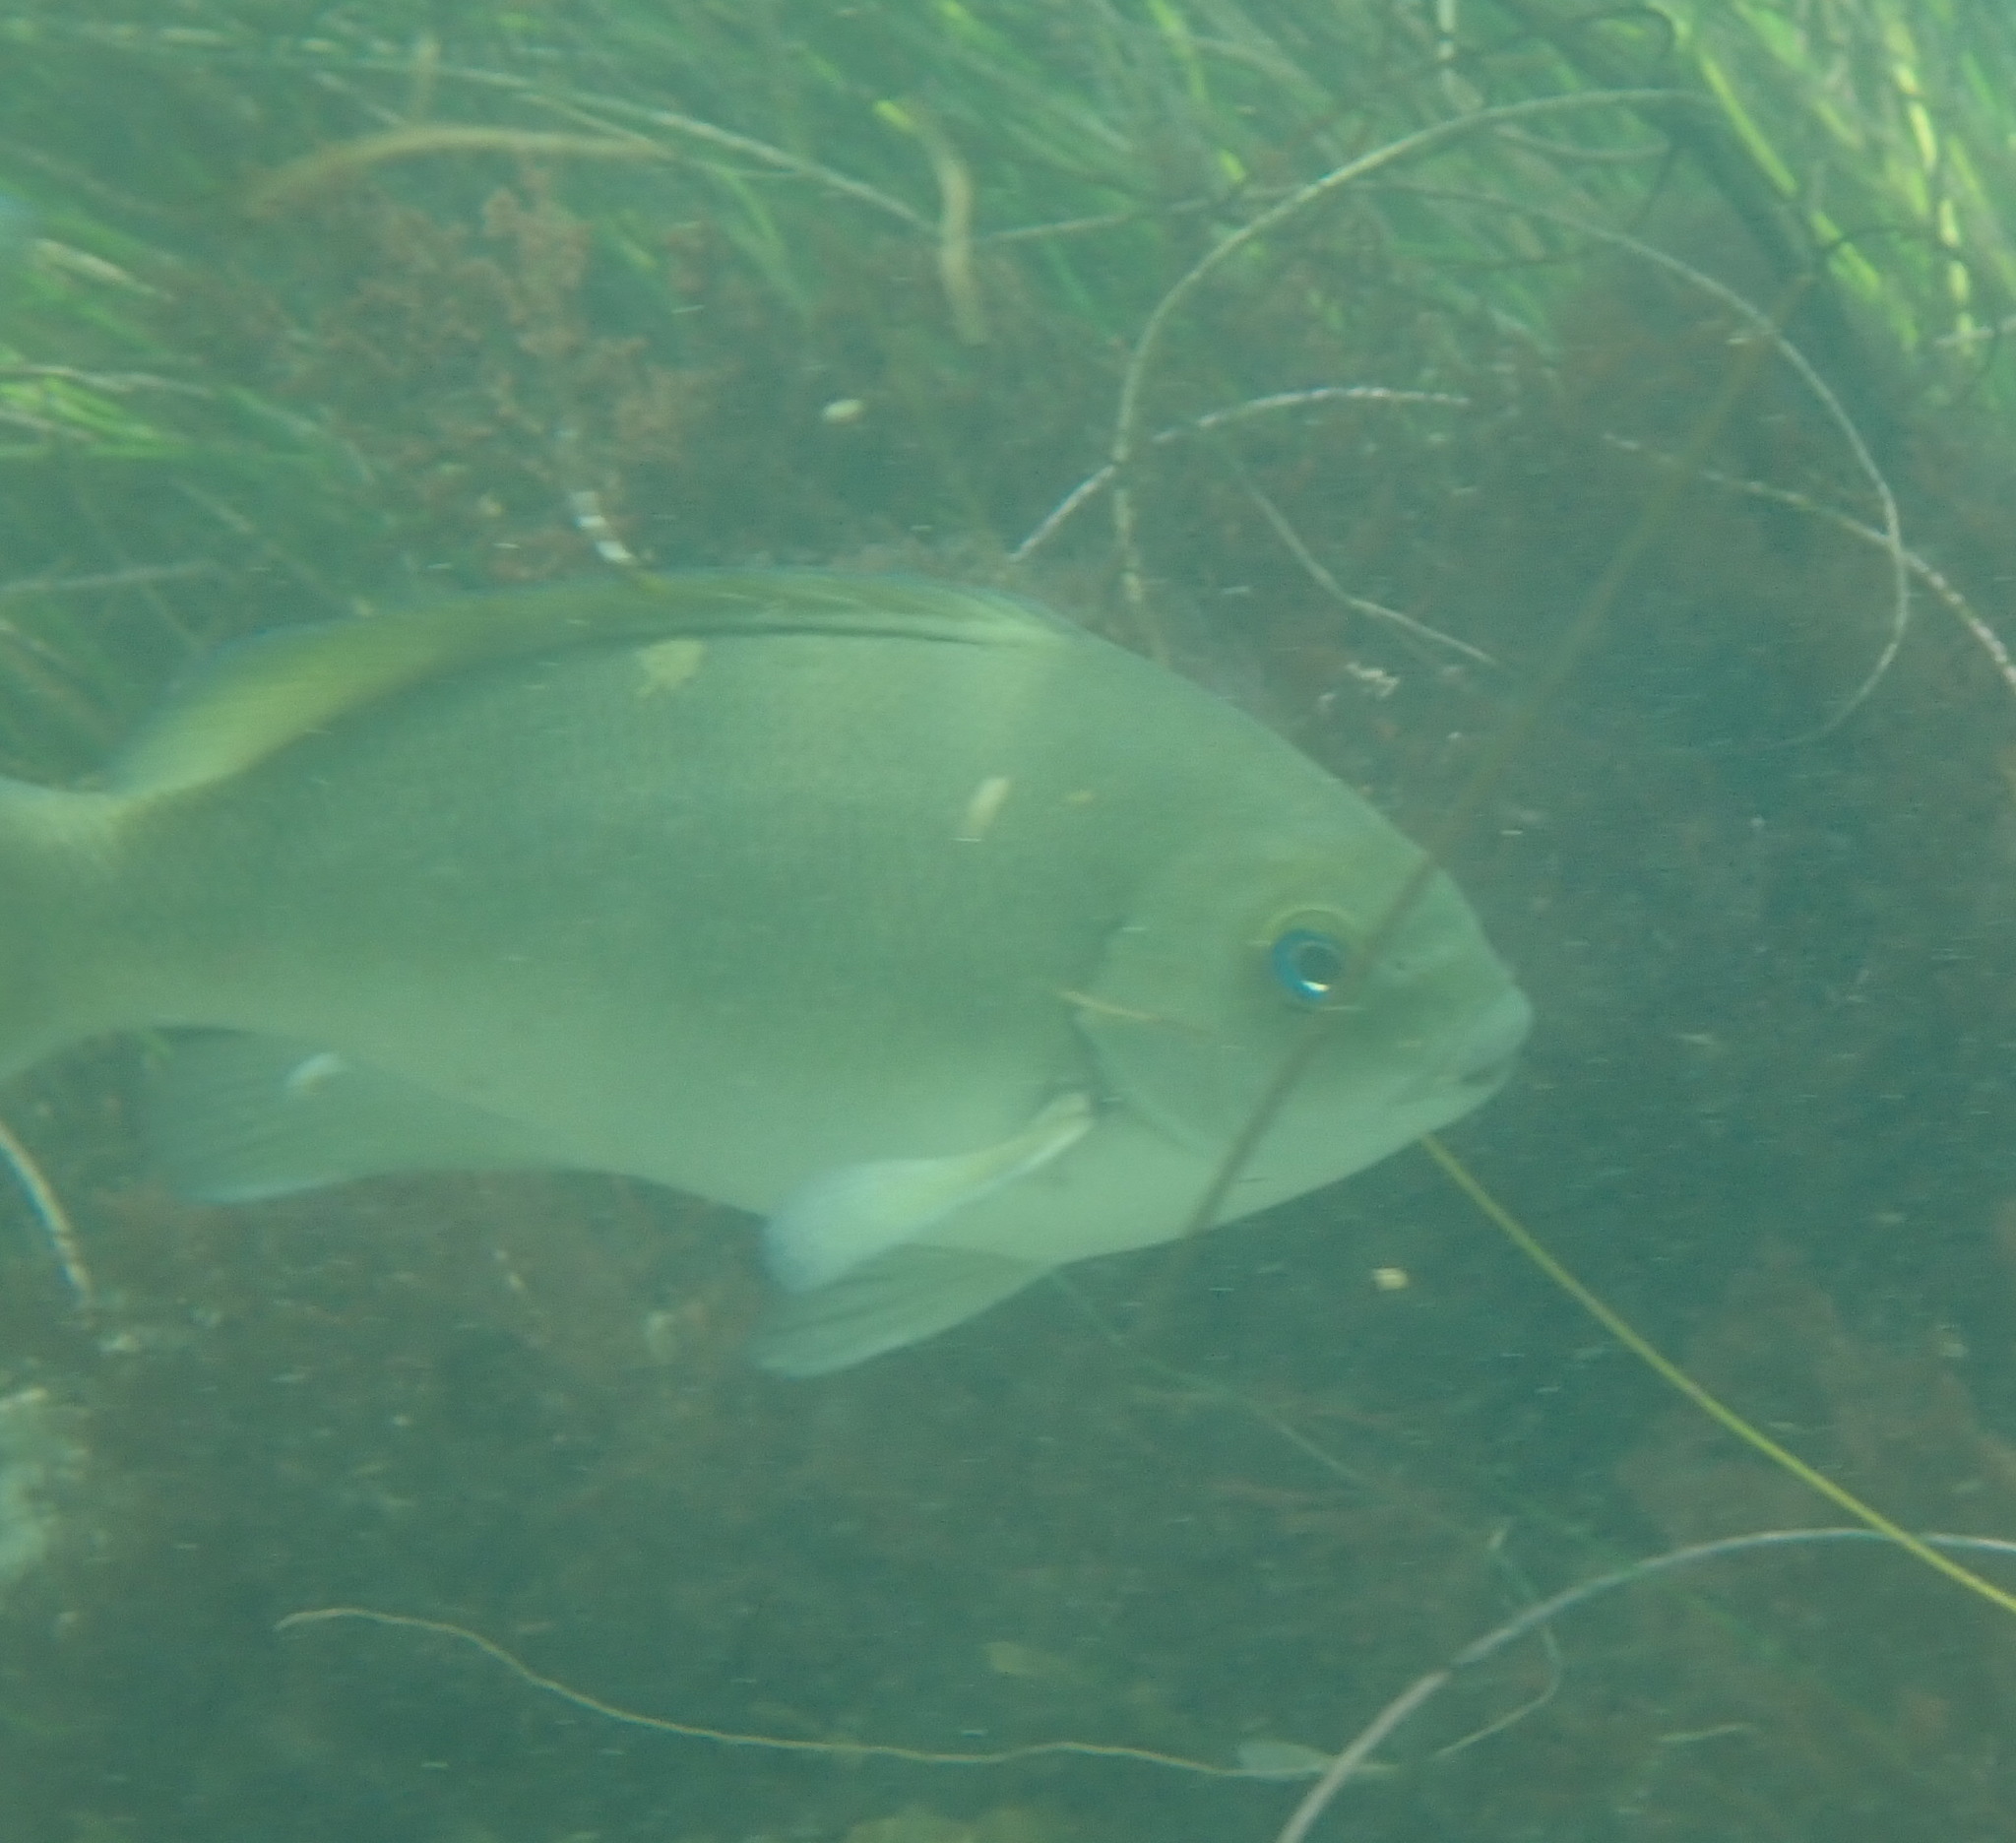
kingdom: Animalia
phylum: Chordata
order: Perciformes
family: Kyphosidae
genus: Girella
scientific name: Girella nigricans
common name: Opaleye
